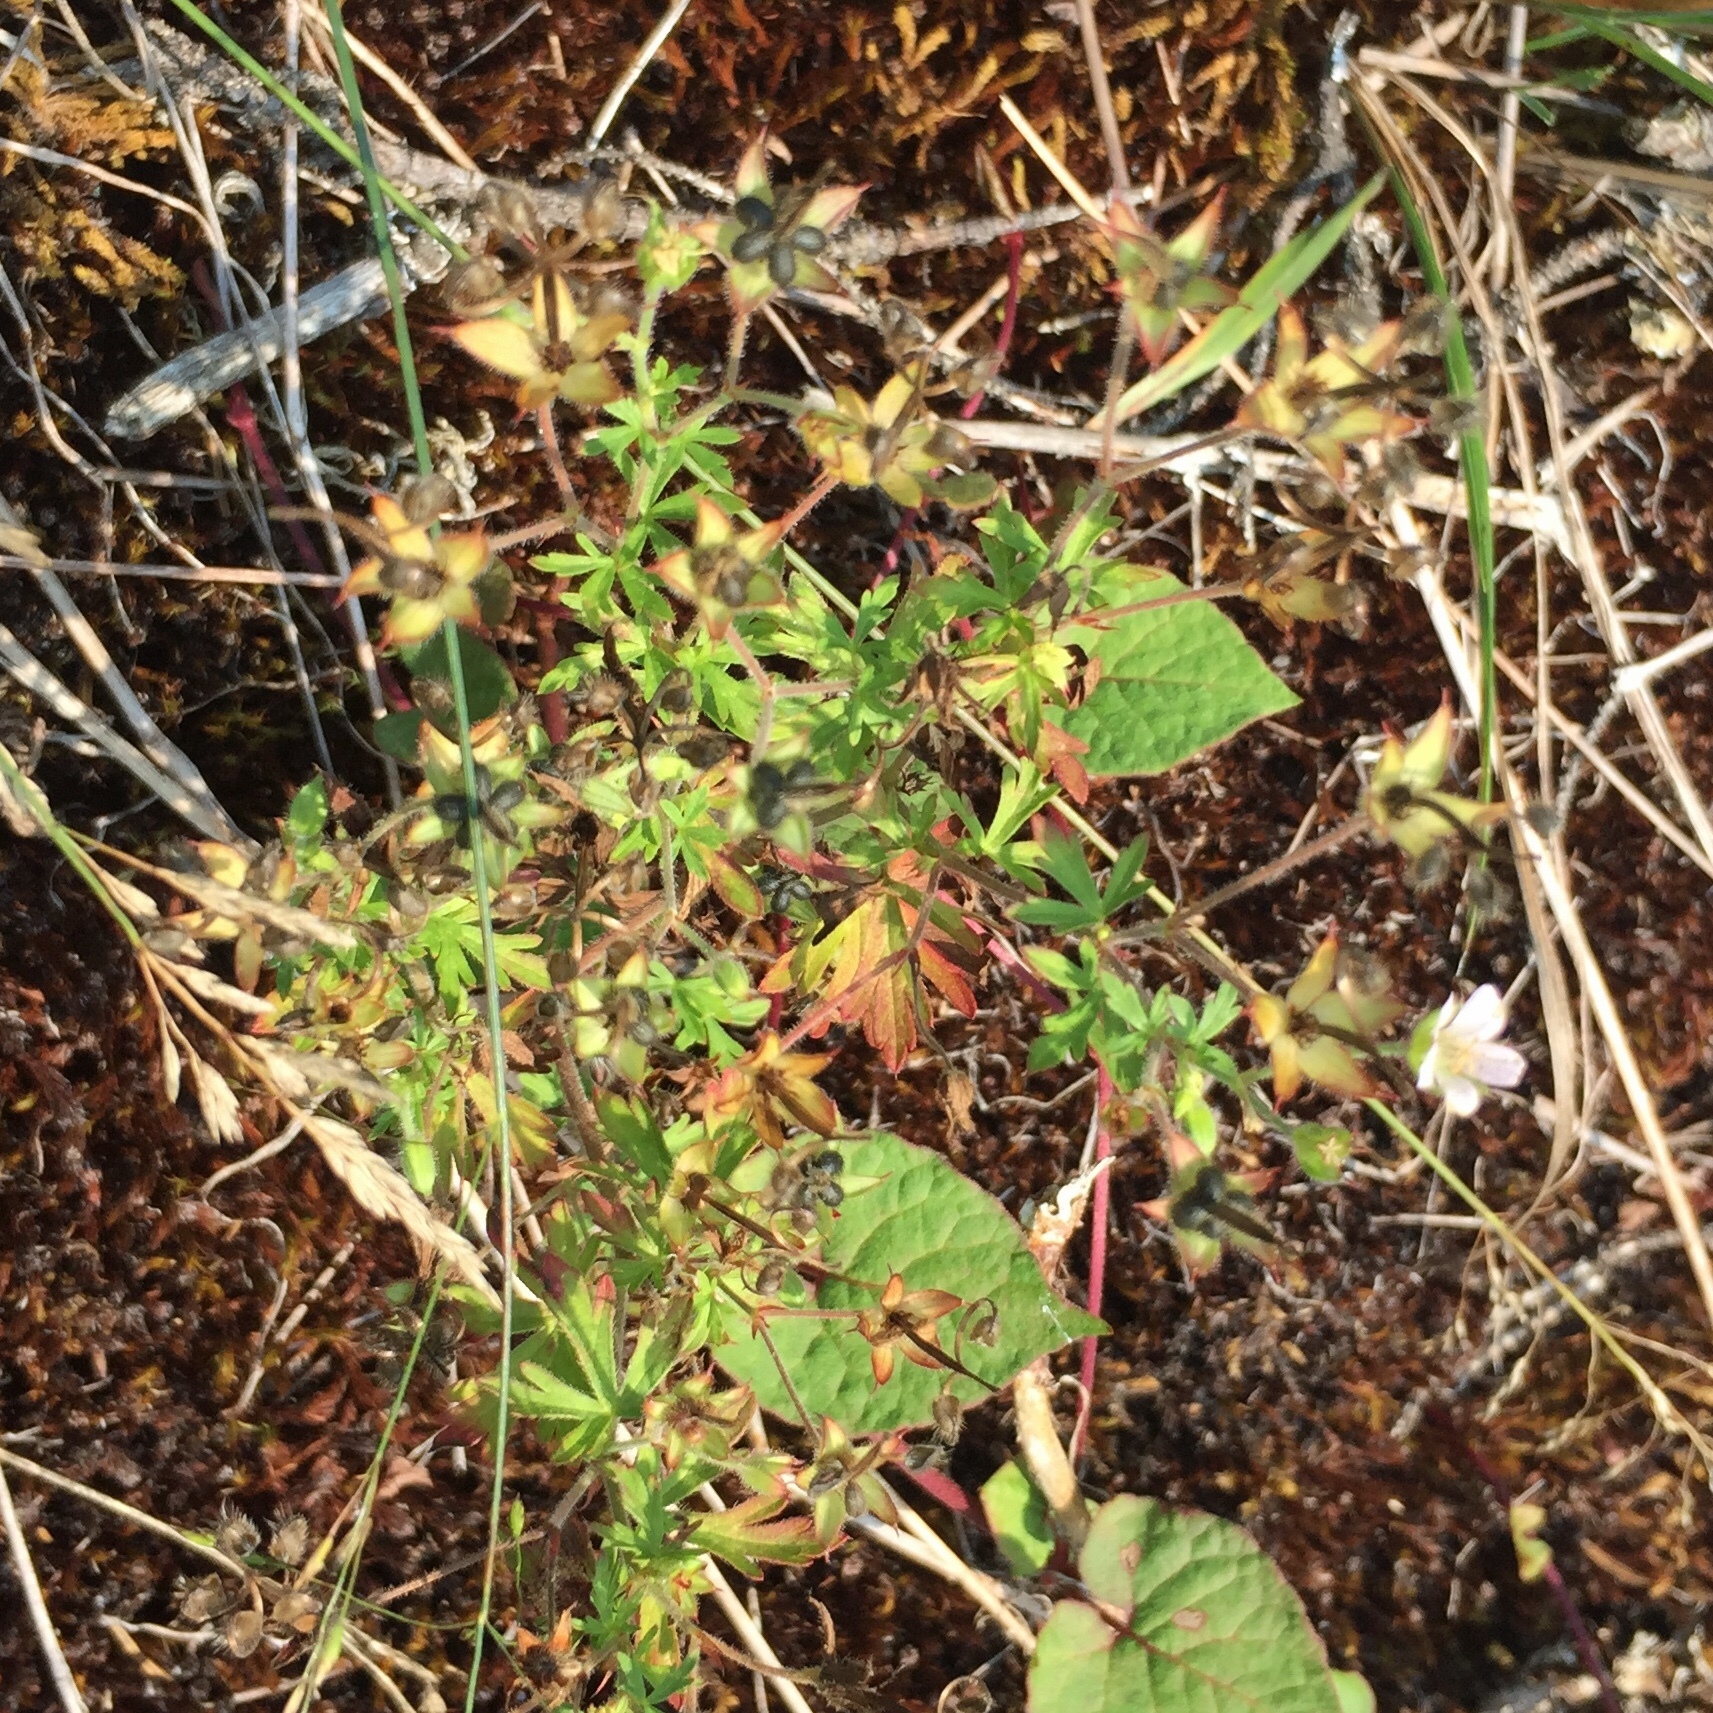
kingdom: Plantae
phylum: Tracheophyta
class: Magnoliopsida
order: Geraniales
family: Geraniaceae
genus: Geranium
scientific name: Geranium bicknellii
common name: Bicknell's cranesbill
